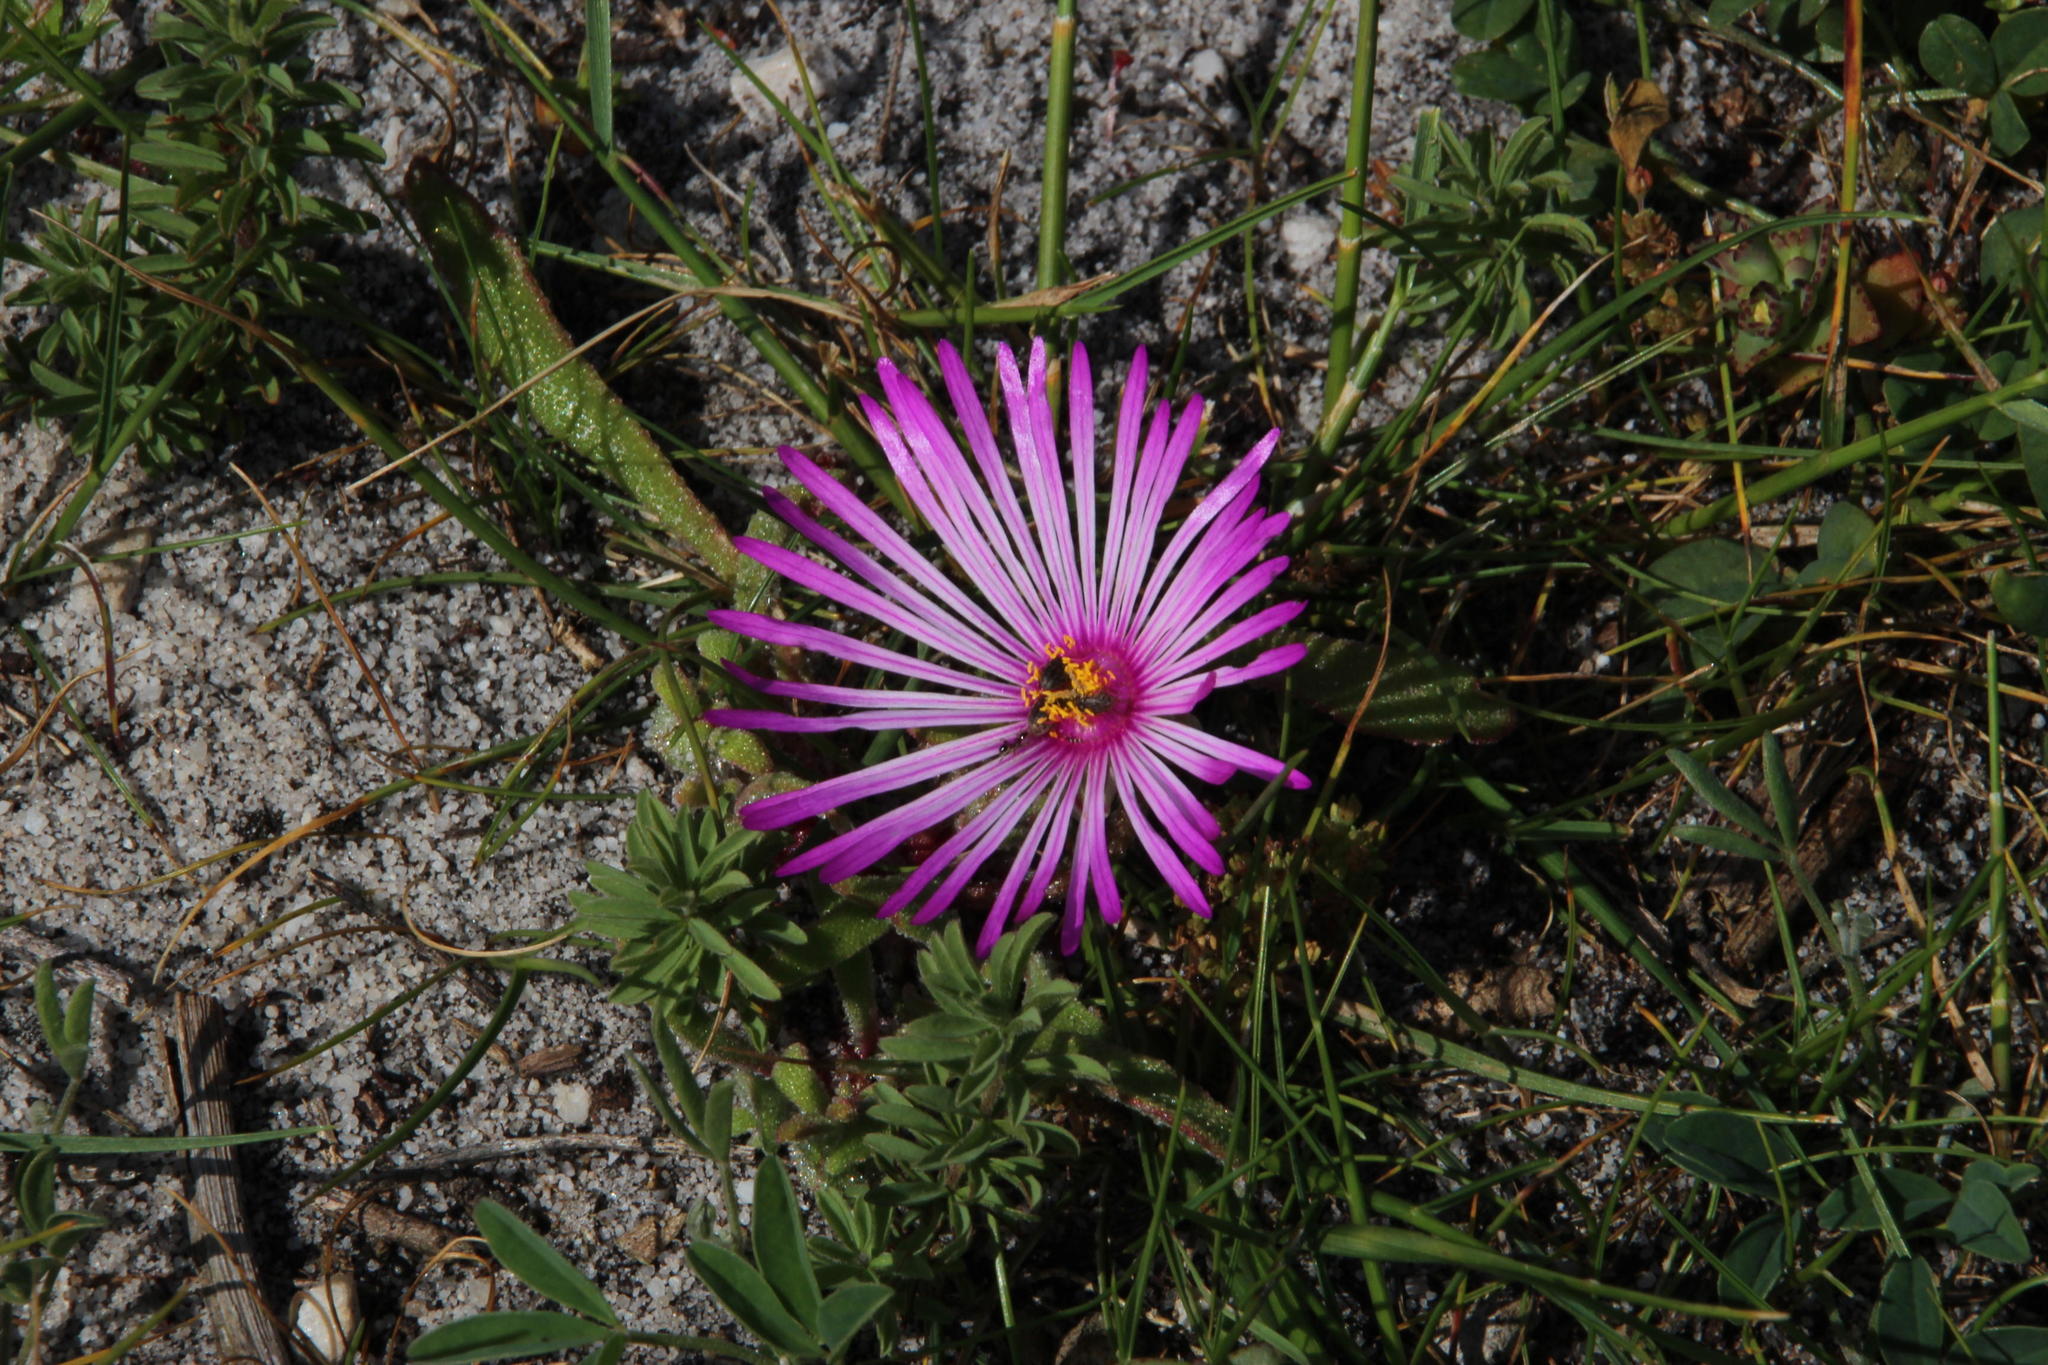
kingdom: Plantae
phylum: Tracheophyta
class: Magnoliopsida
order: Caryophyllales
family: Aizoaceae
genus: Cleretum
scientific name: Cleretum bellidiforme
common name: Livingstone daisy
